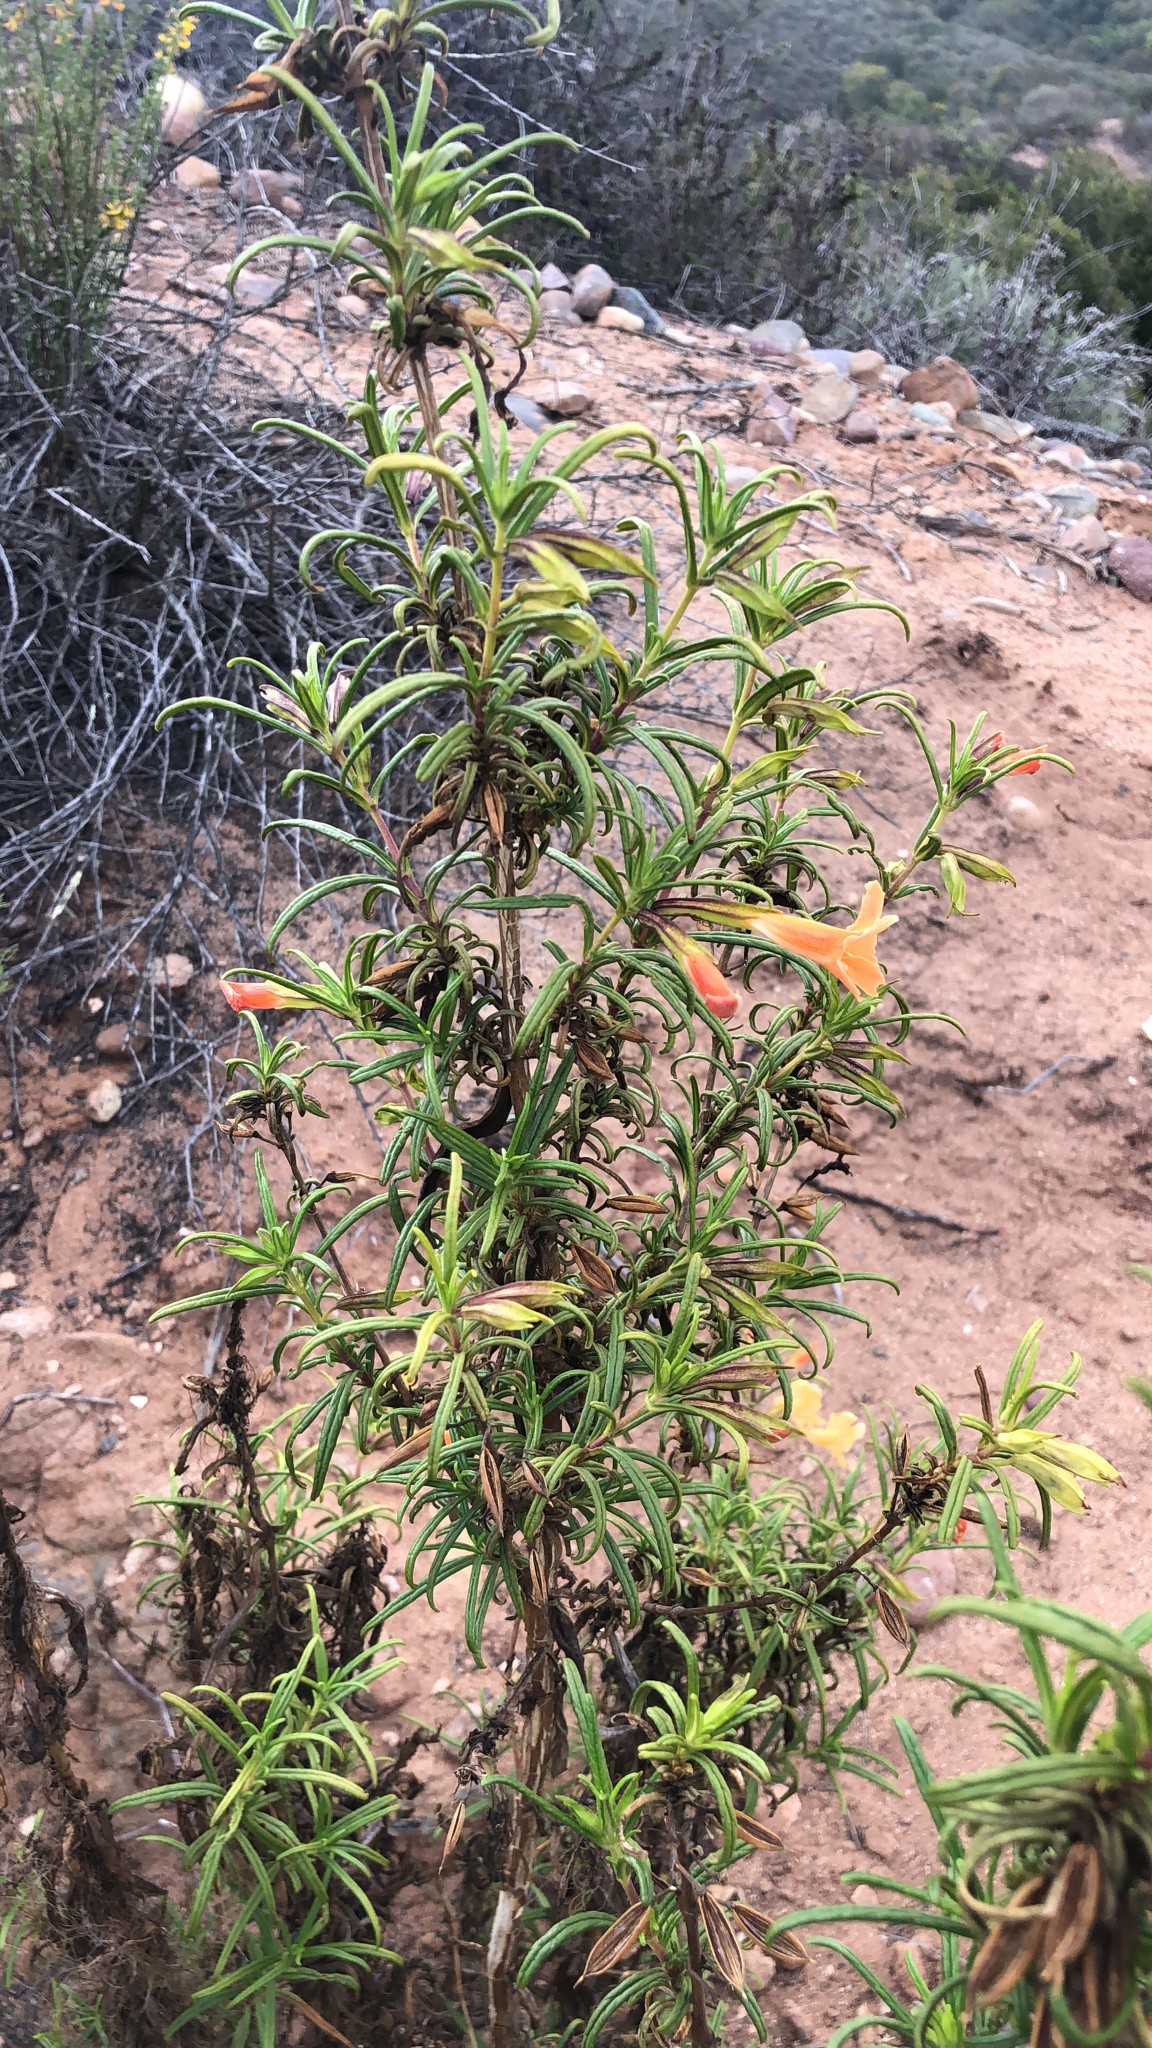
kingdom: Plantae
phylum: Tracheophyta
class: Magnoliopsida
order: Lamiales
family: Phrymaceae
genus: Diplacus
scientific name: Diplacus australis
